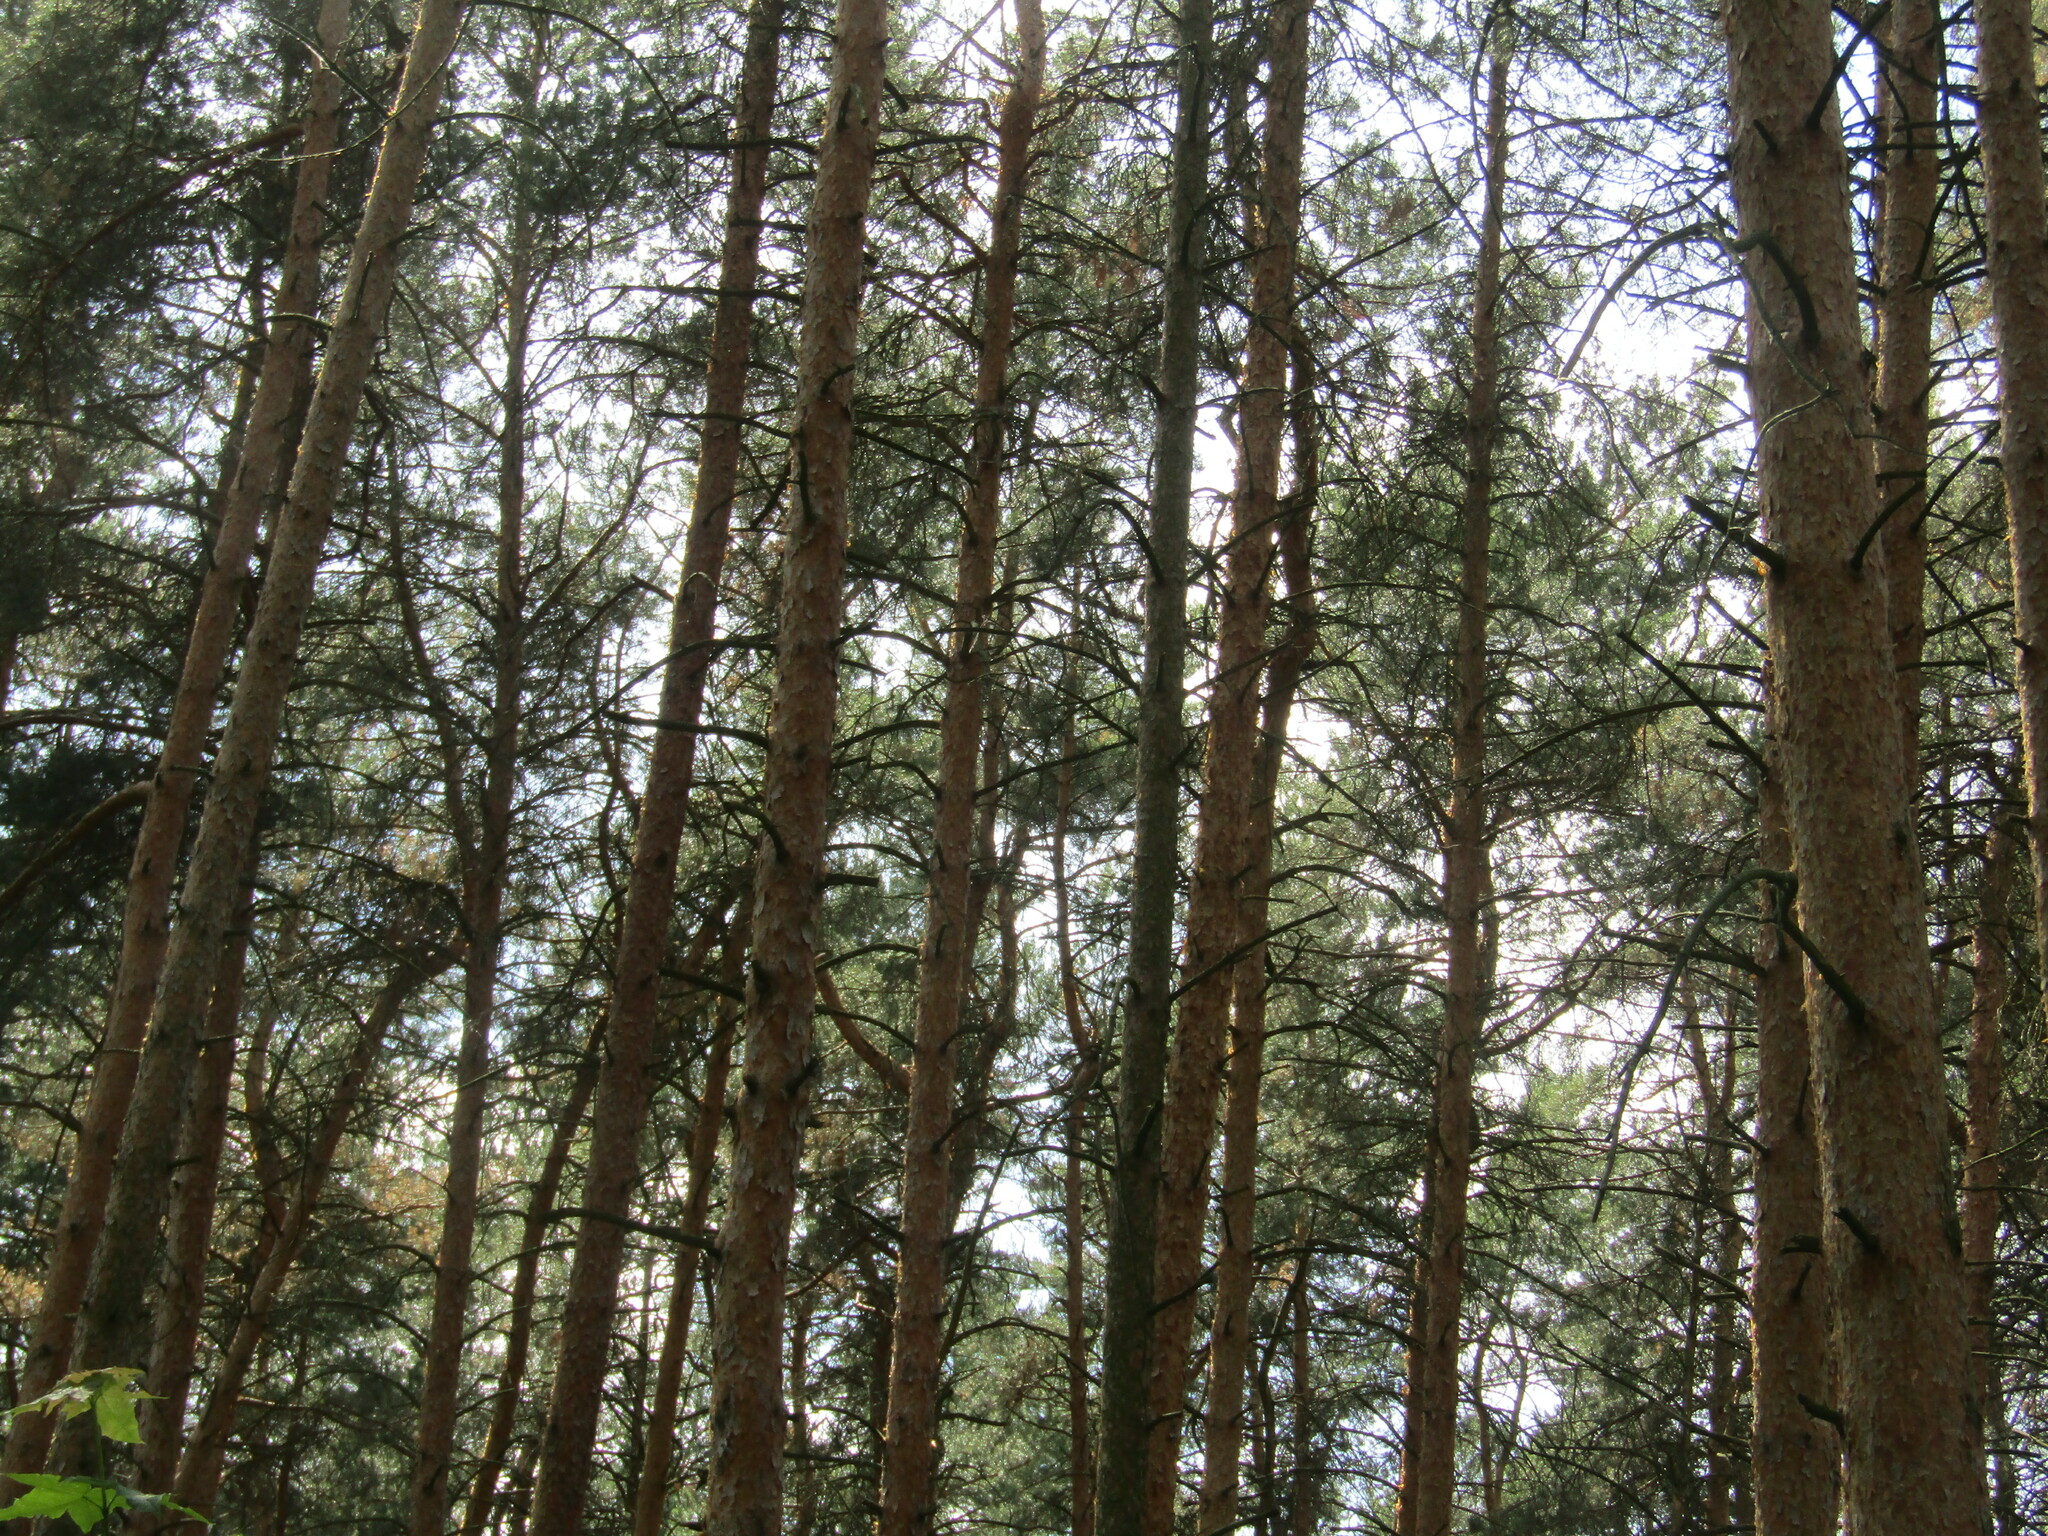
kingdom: Plantae
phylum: Tracheophyta
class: Pinopsida
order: Pinales
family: Pinaceae
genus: Pinus
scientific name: Pinus sylvestris
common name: Scots pine
